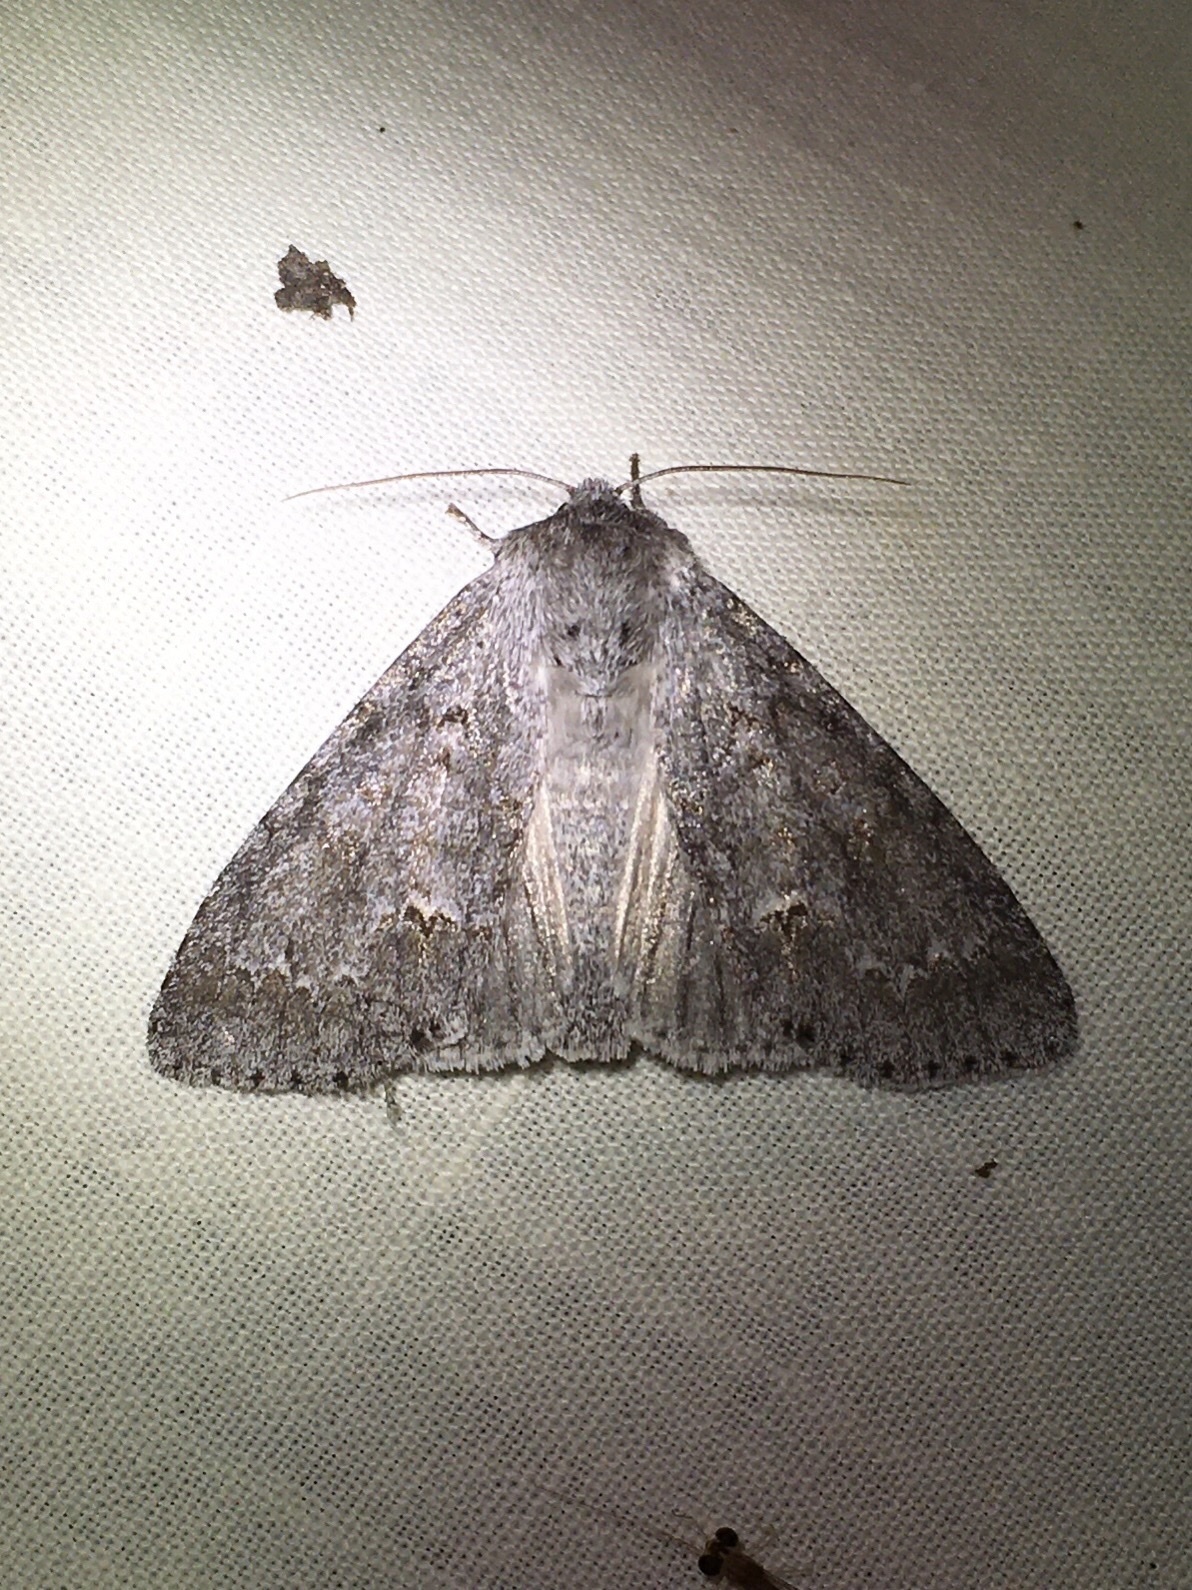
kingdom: Animalia
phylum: Arthropoda
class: Insecta
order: Lepidoptera
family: Noctuidae
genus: Acronicta
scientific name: Acronicta insita
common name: Large gray dagger
